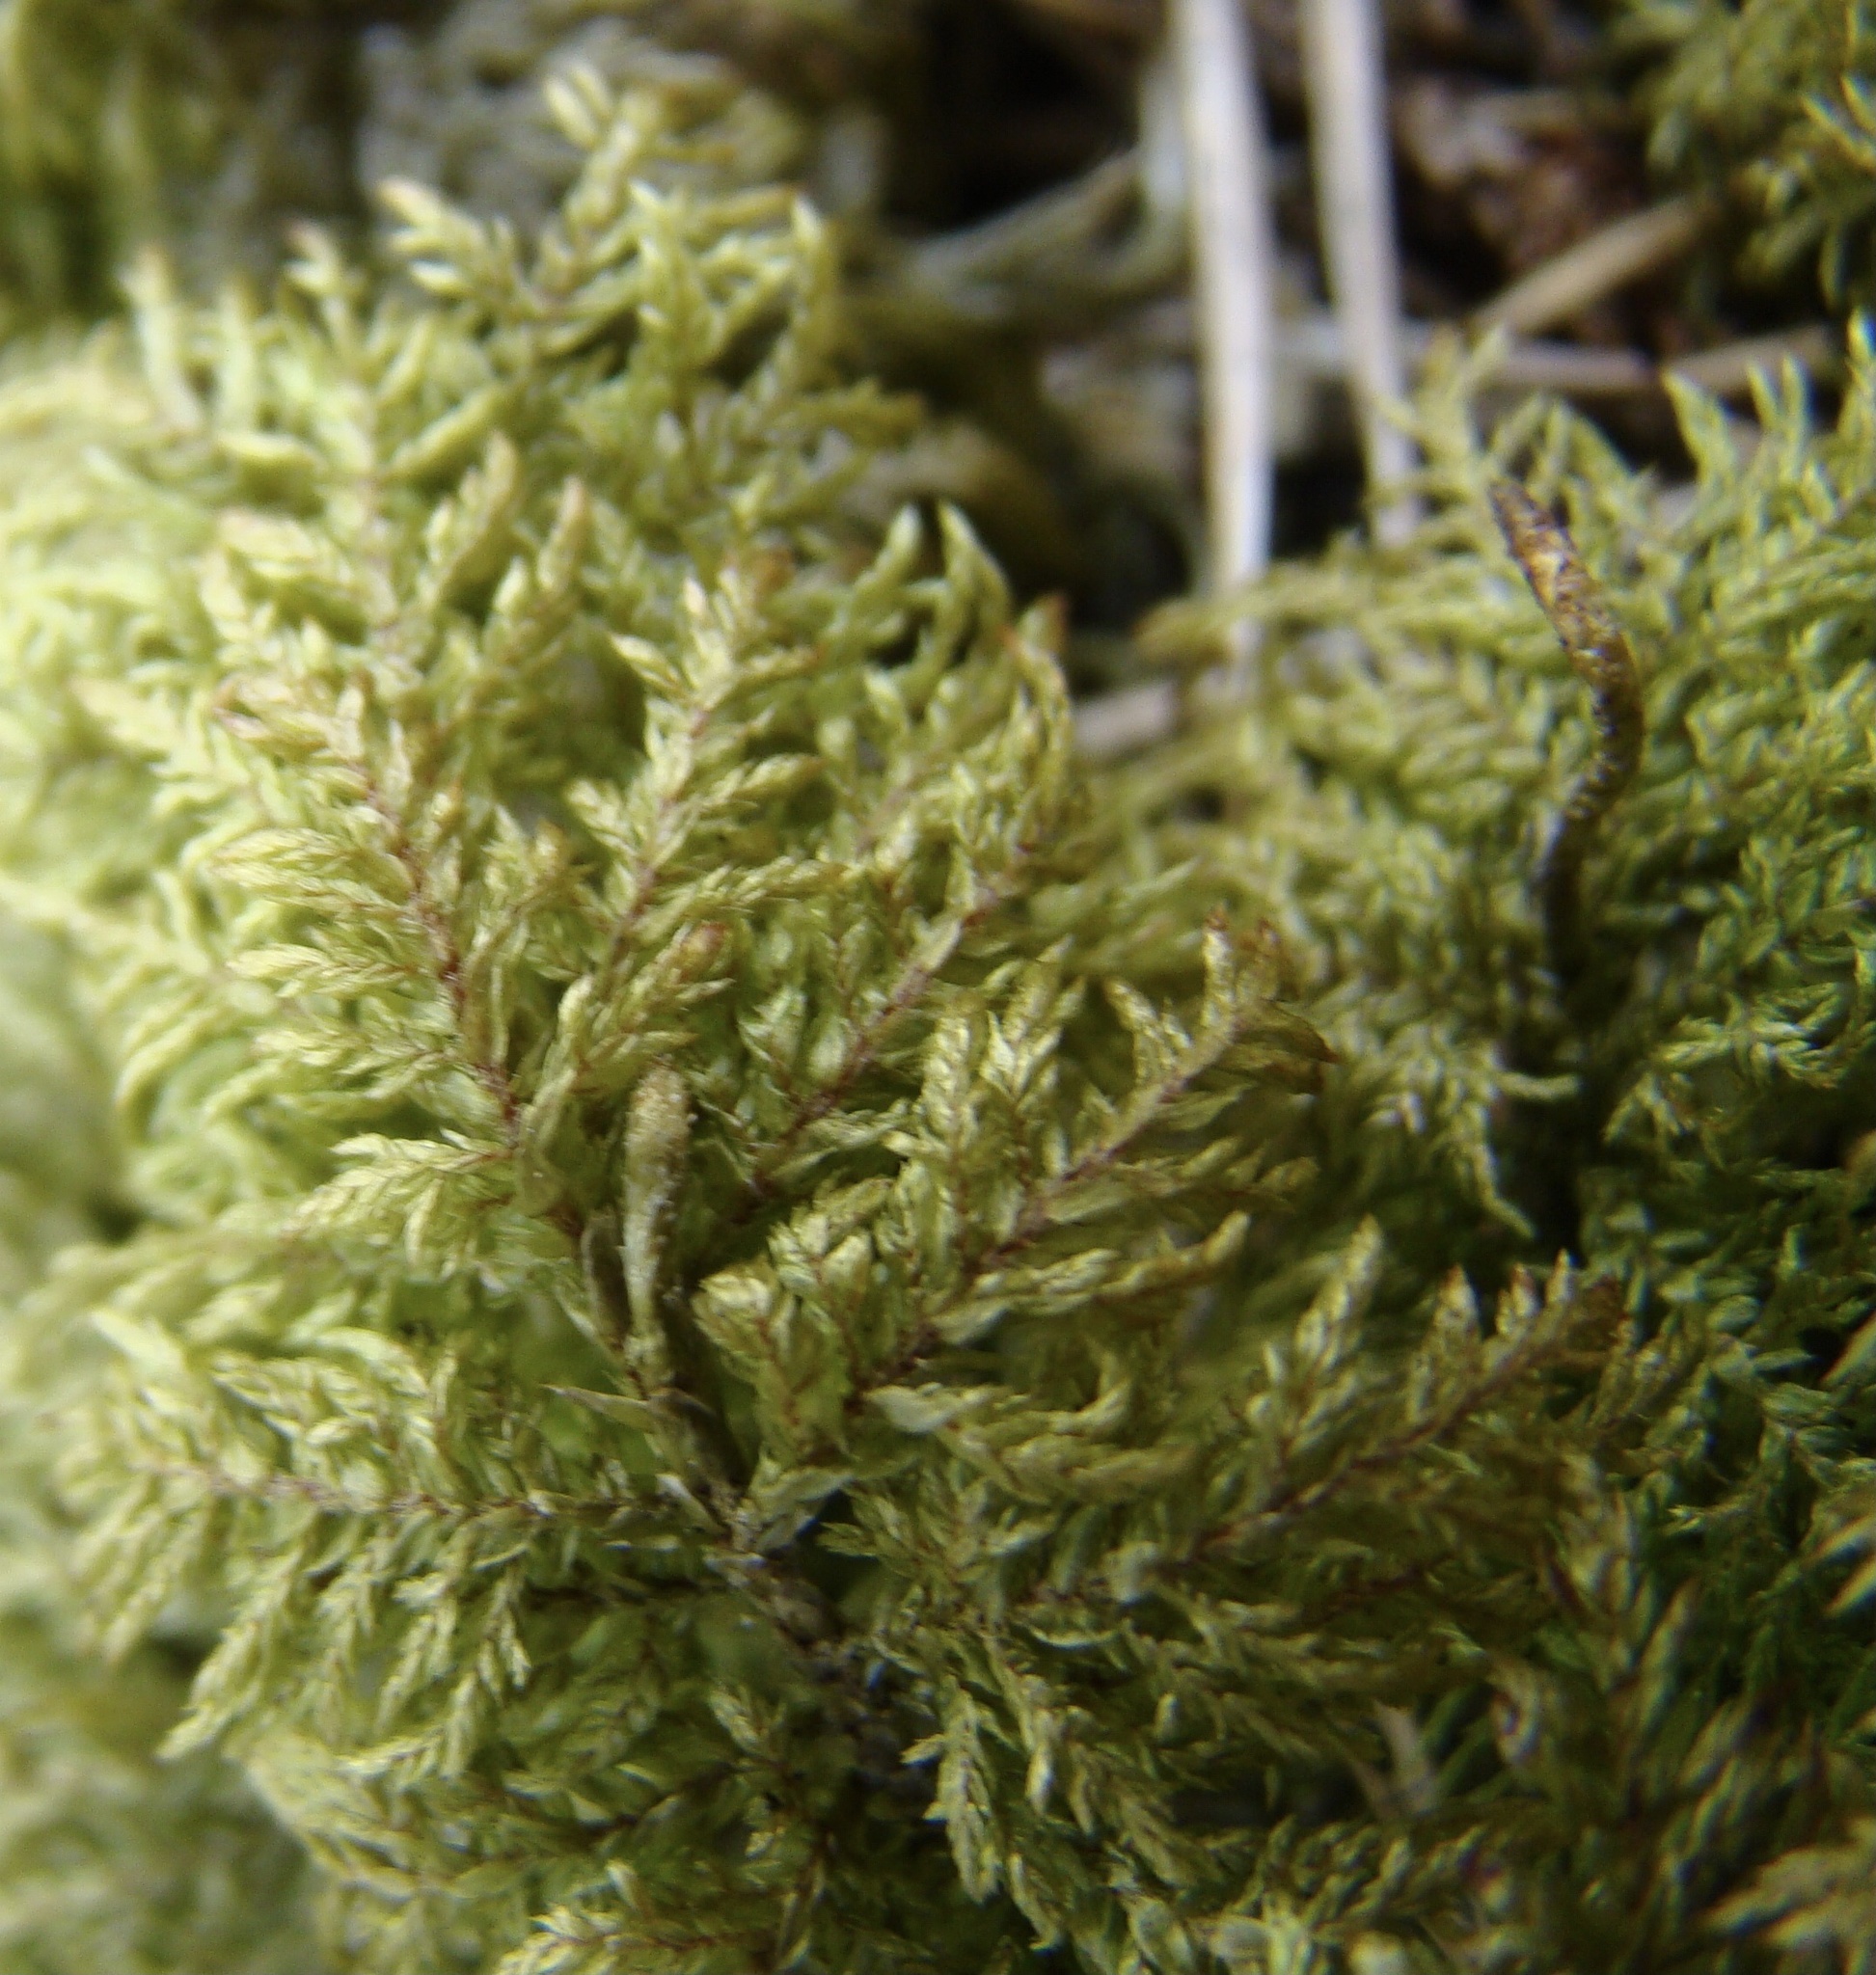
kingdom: Plantae
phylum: Bryophyta
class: Bryopsida
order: Hypnales
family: Hylocomiaceae
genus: Hylocomium
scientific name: Hylocomium splendens
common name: Stairstep moss
